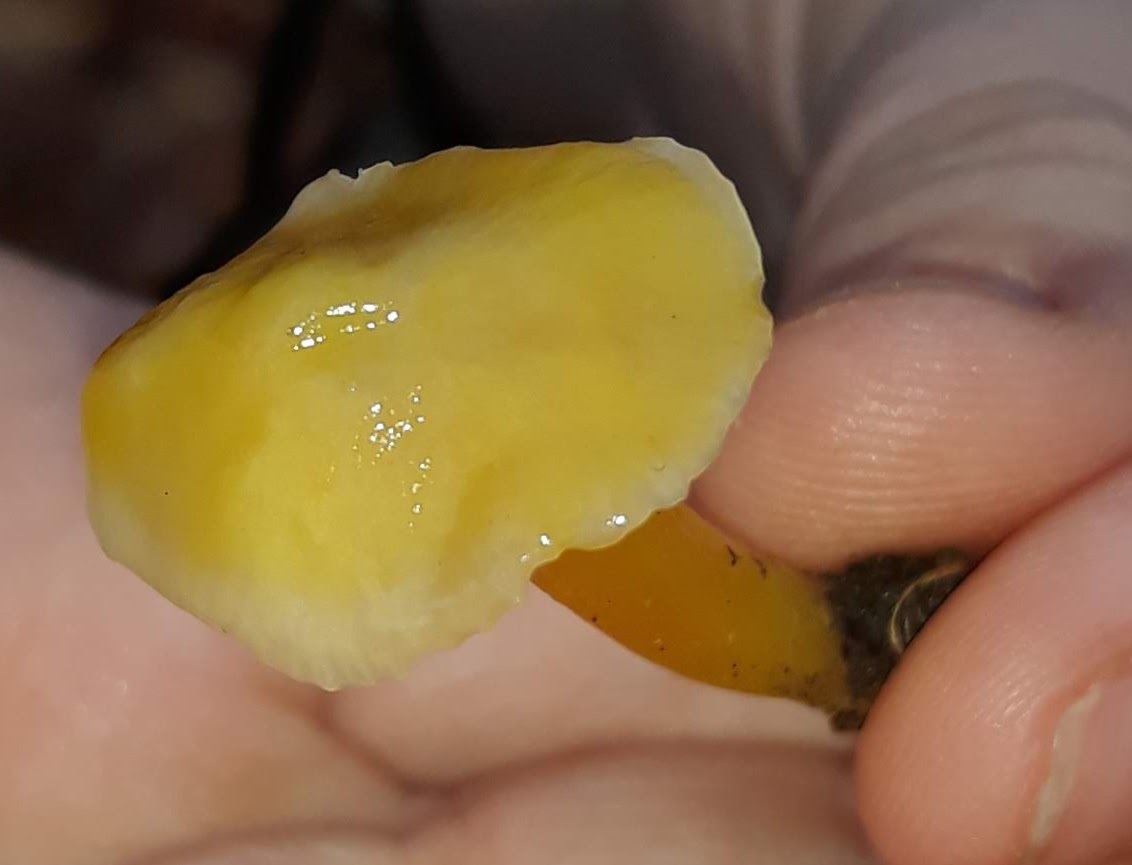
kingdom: Fungi
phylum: Basidiomycota
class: Agaricomycetes
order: Agaricales
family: Hygrophoraceae
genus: Humidicutis
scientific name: Humidicutis marginata
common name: Orange gilled waxcap
